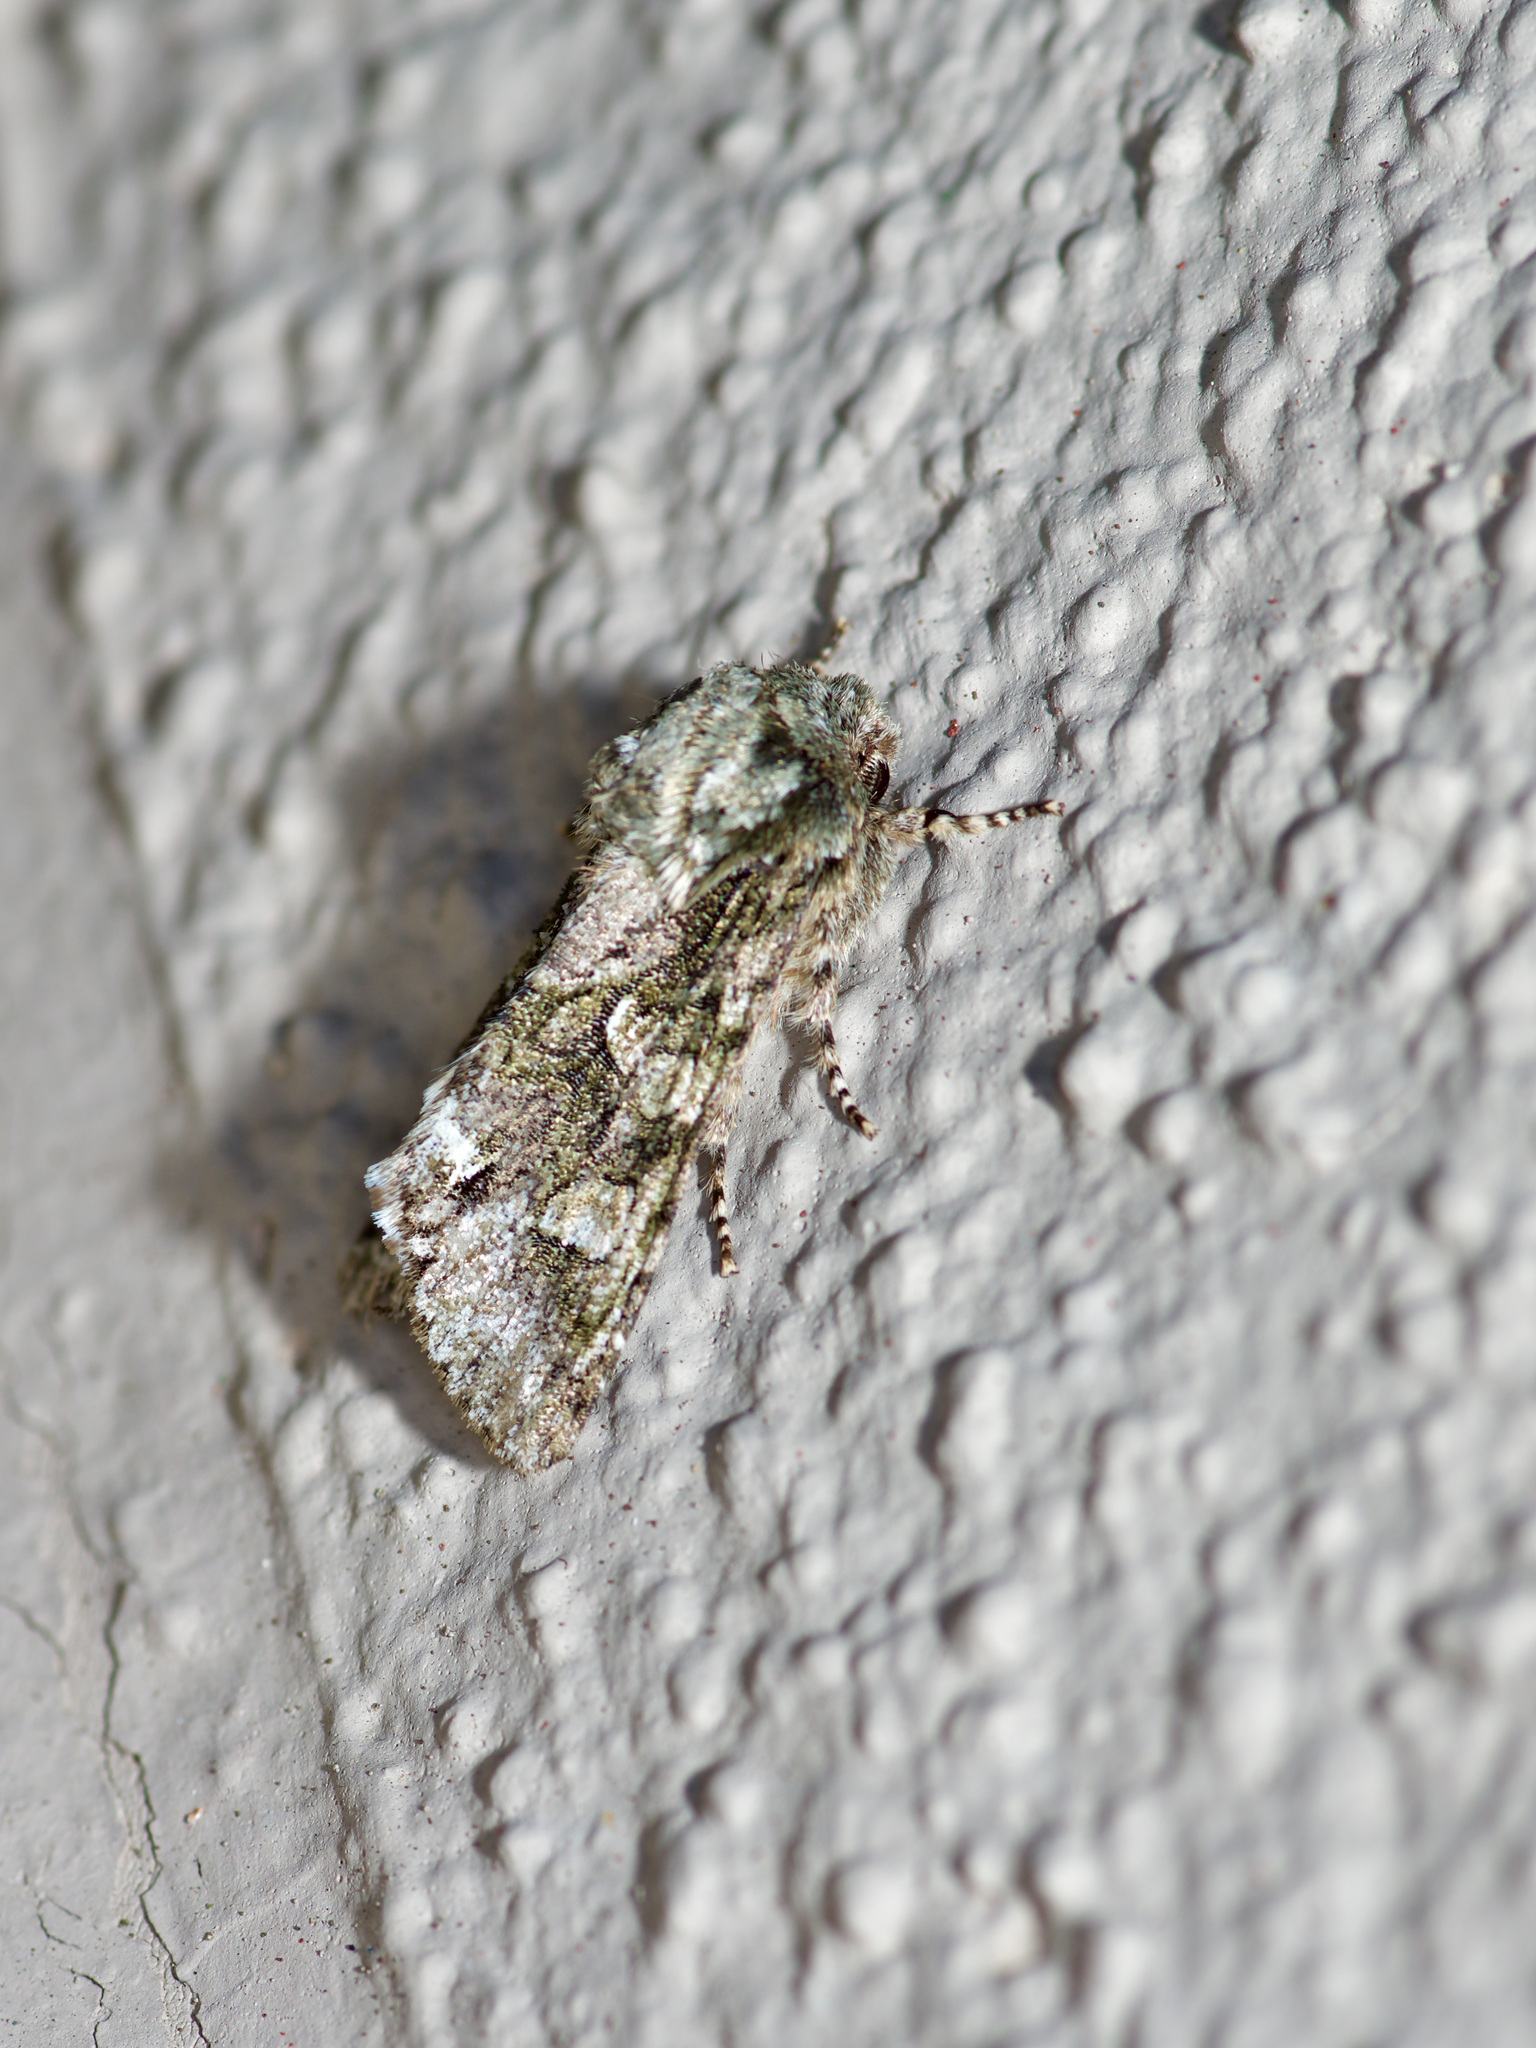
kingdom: Animalia
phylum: Arthropoda
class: Insecta
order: Lepidoptera
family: Noctuidae
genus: Psaphida
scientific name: Psaphida resumens
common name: Figure-eight sallow
